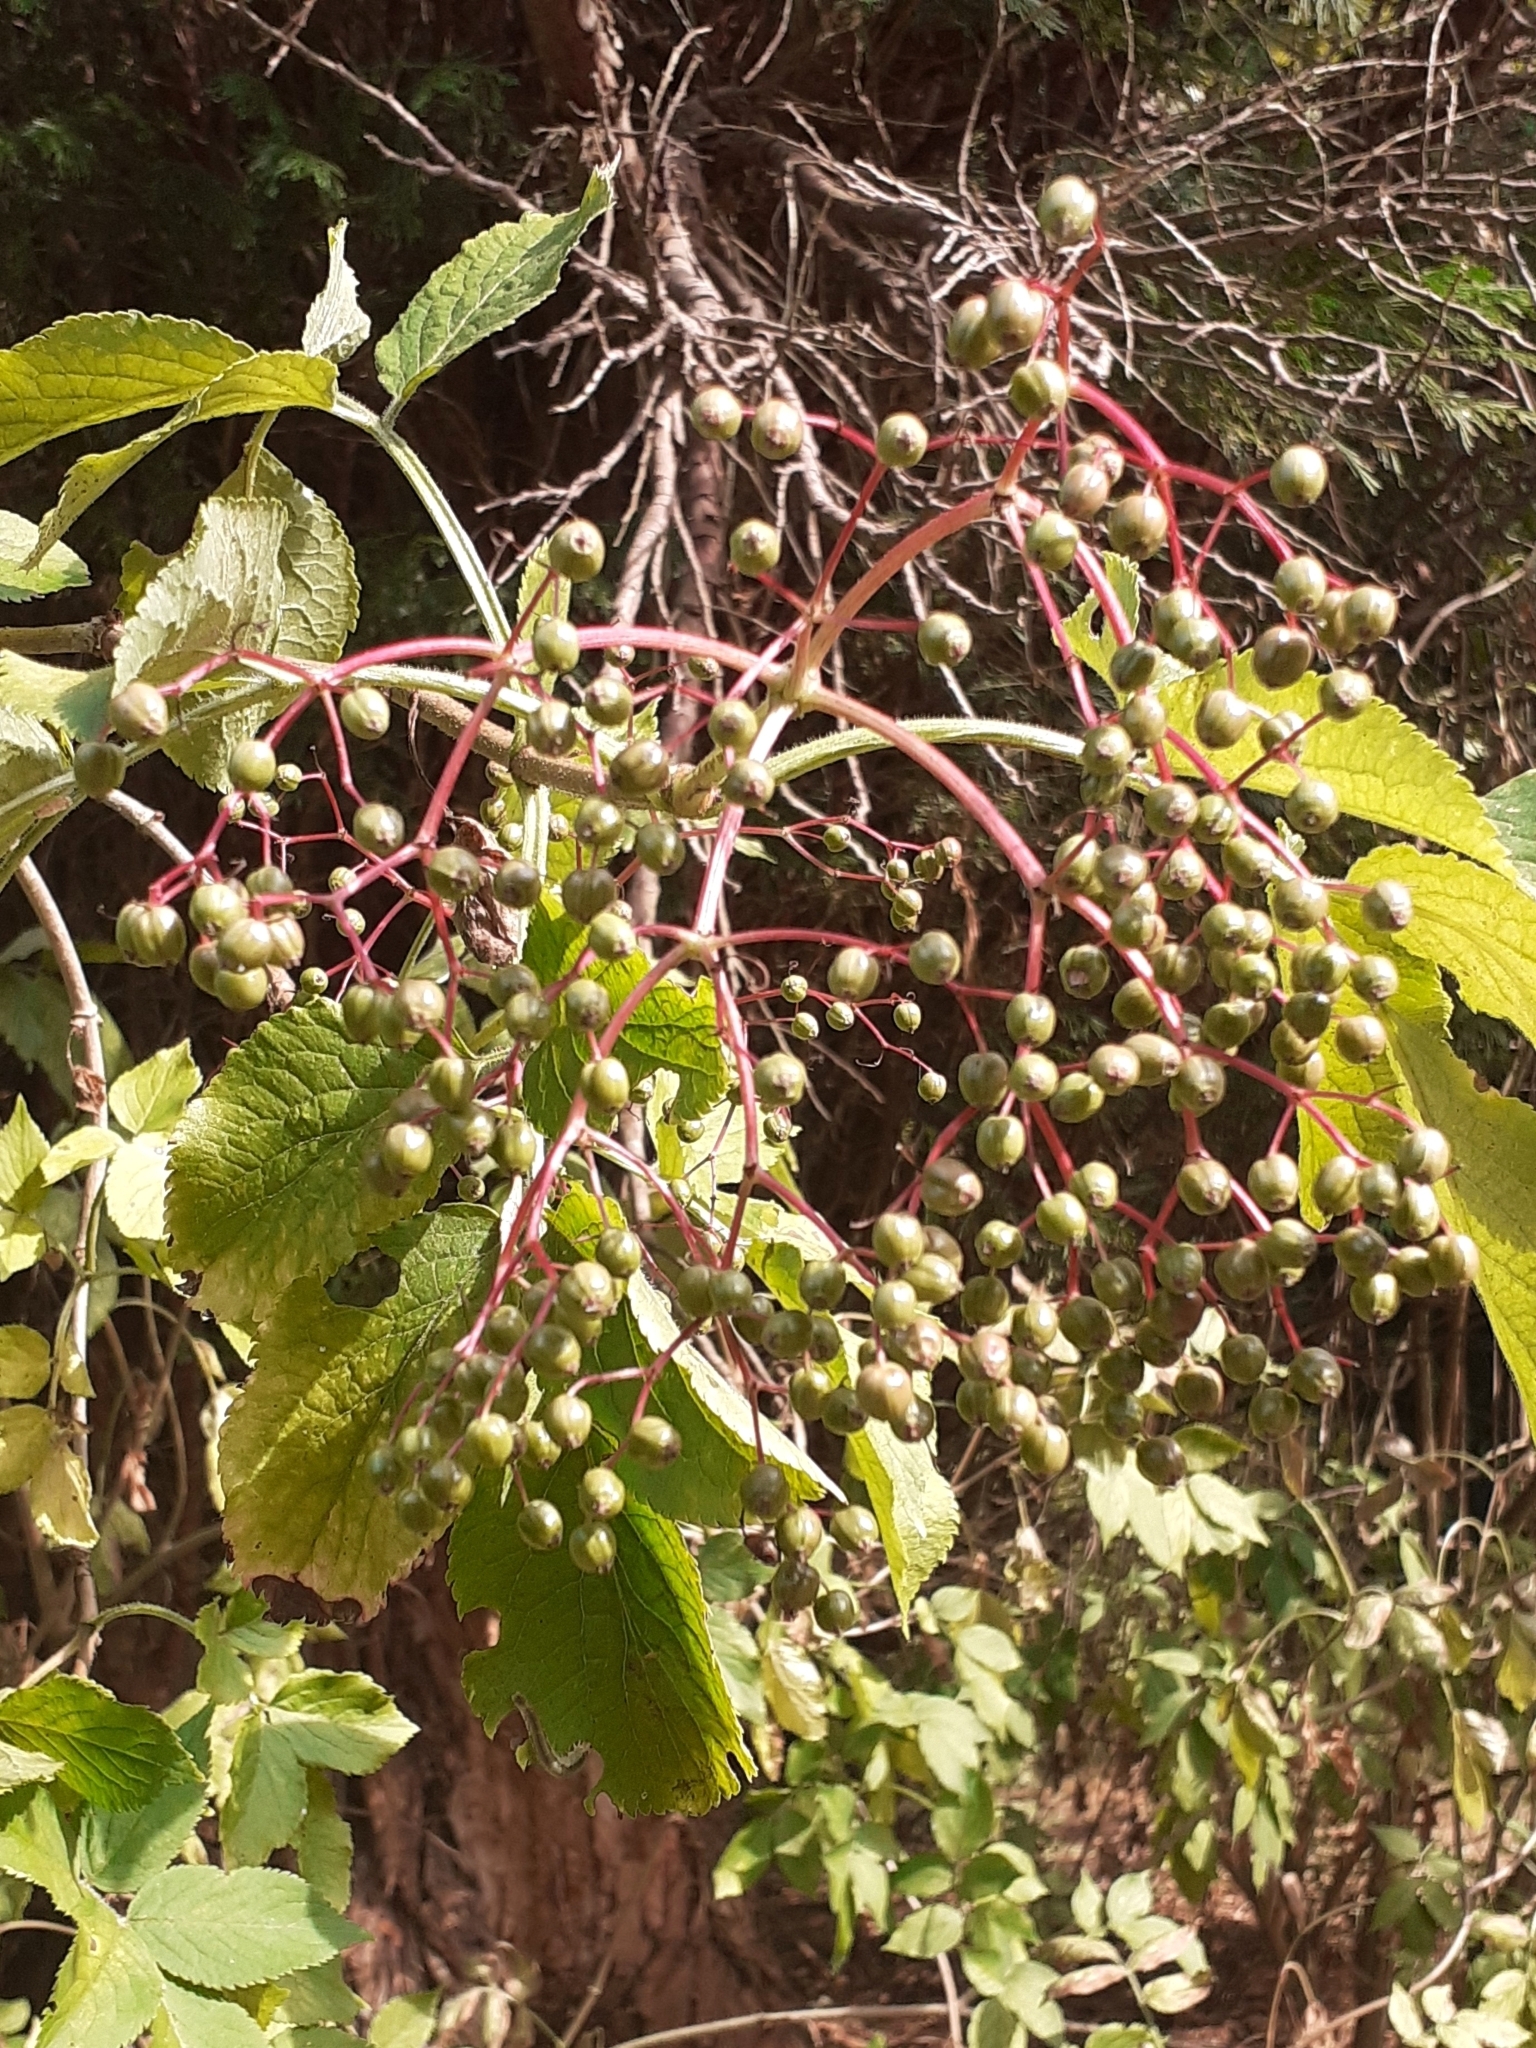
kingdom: Plantae
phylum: Tracheophyta
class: Magnoliopsida
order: Dipsacales
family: Viburnaceae
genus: Sambucus
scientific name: Sambucus nigra
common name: Elder
